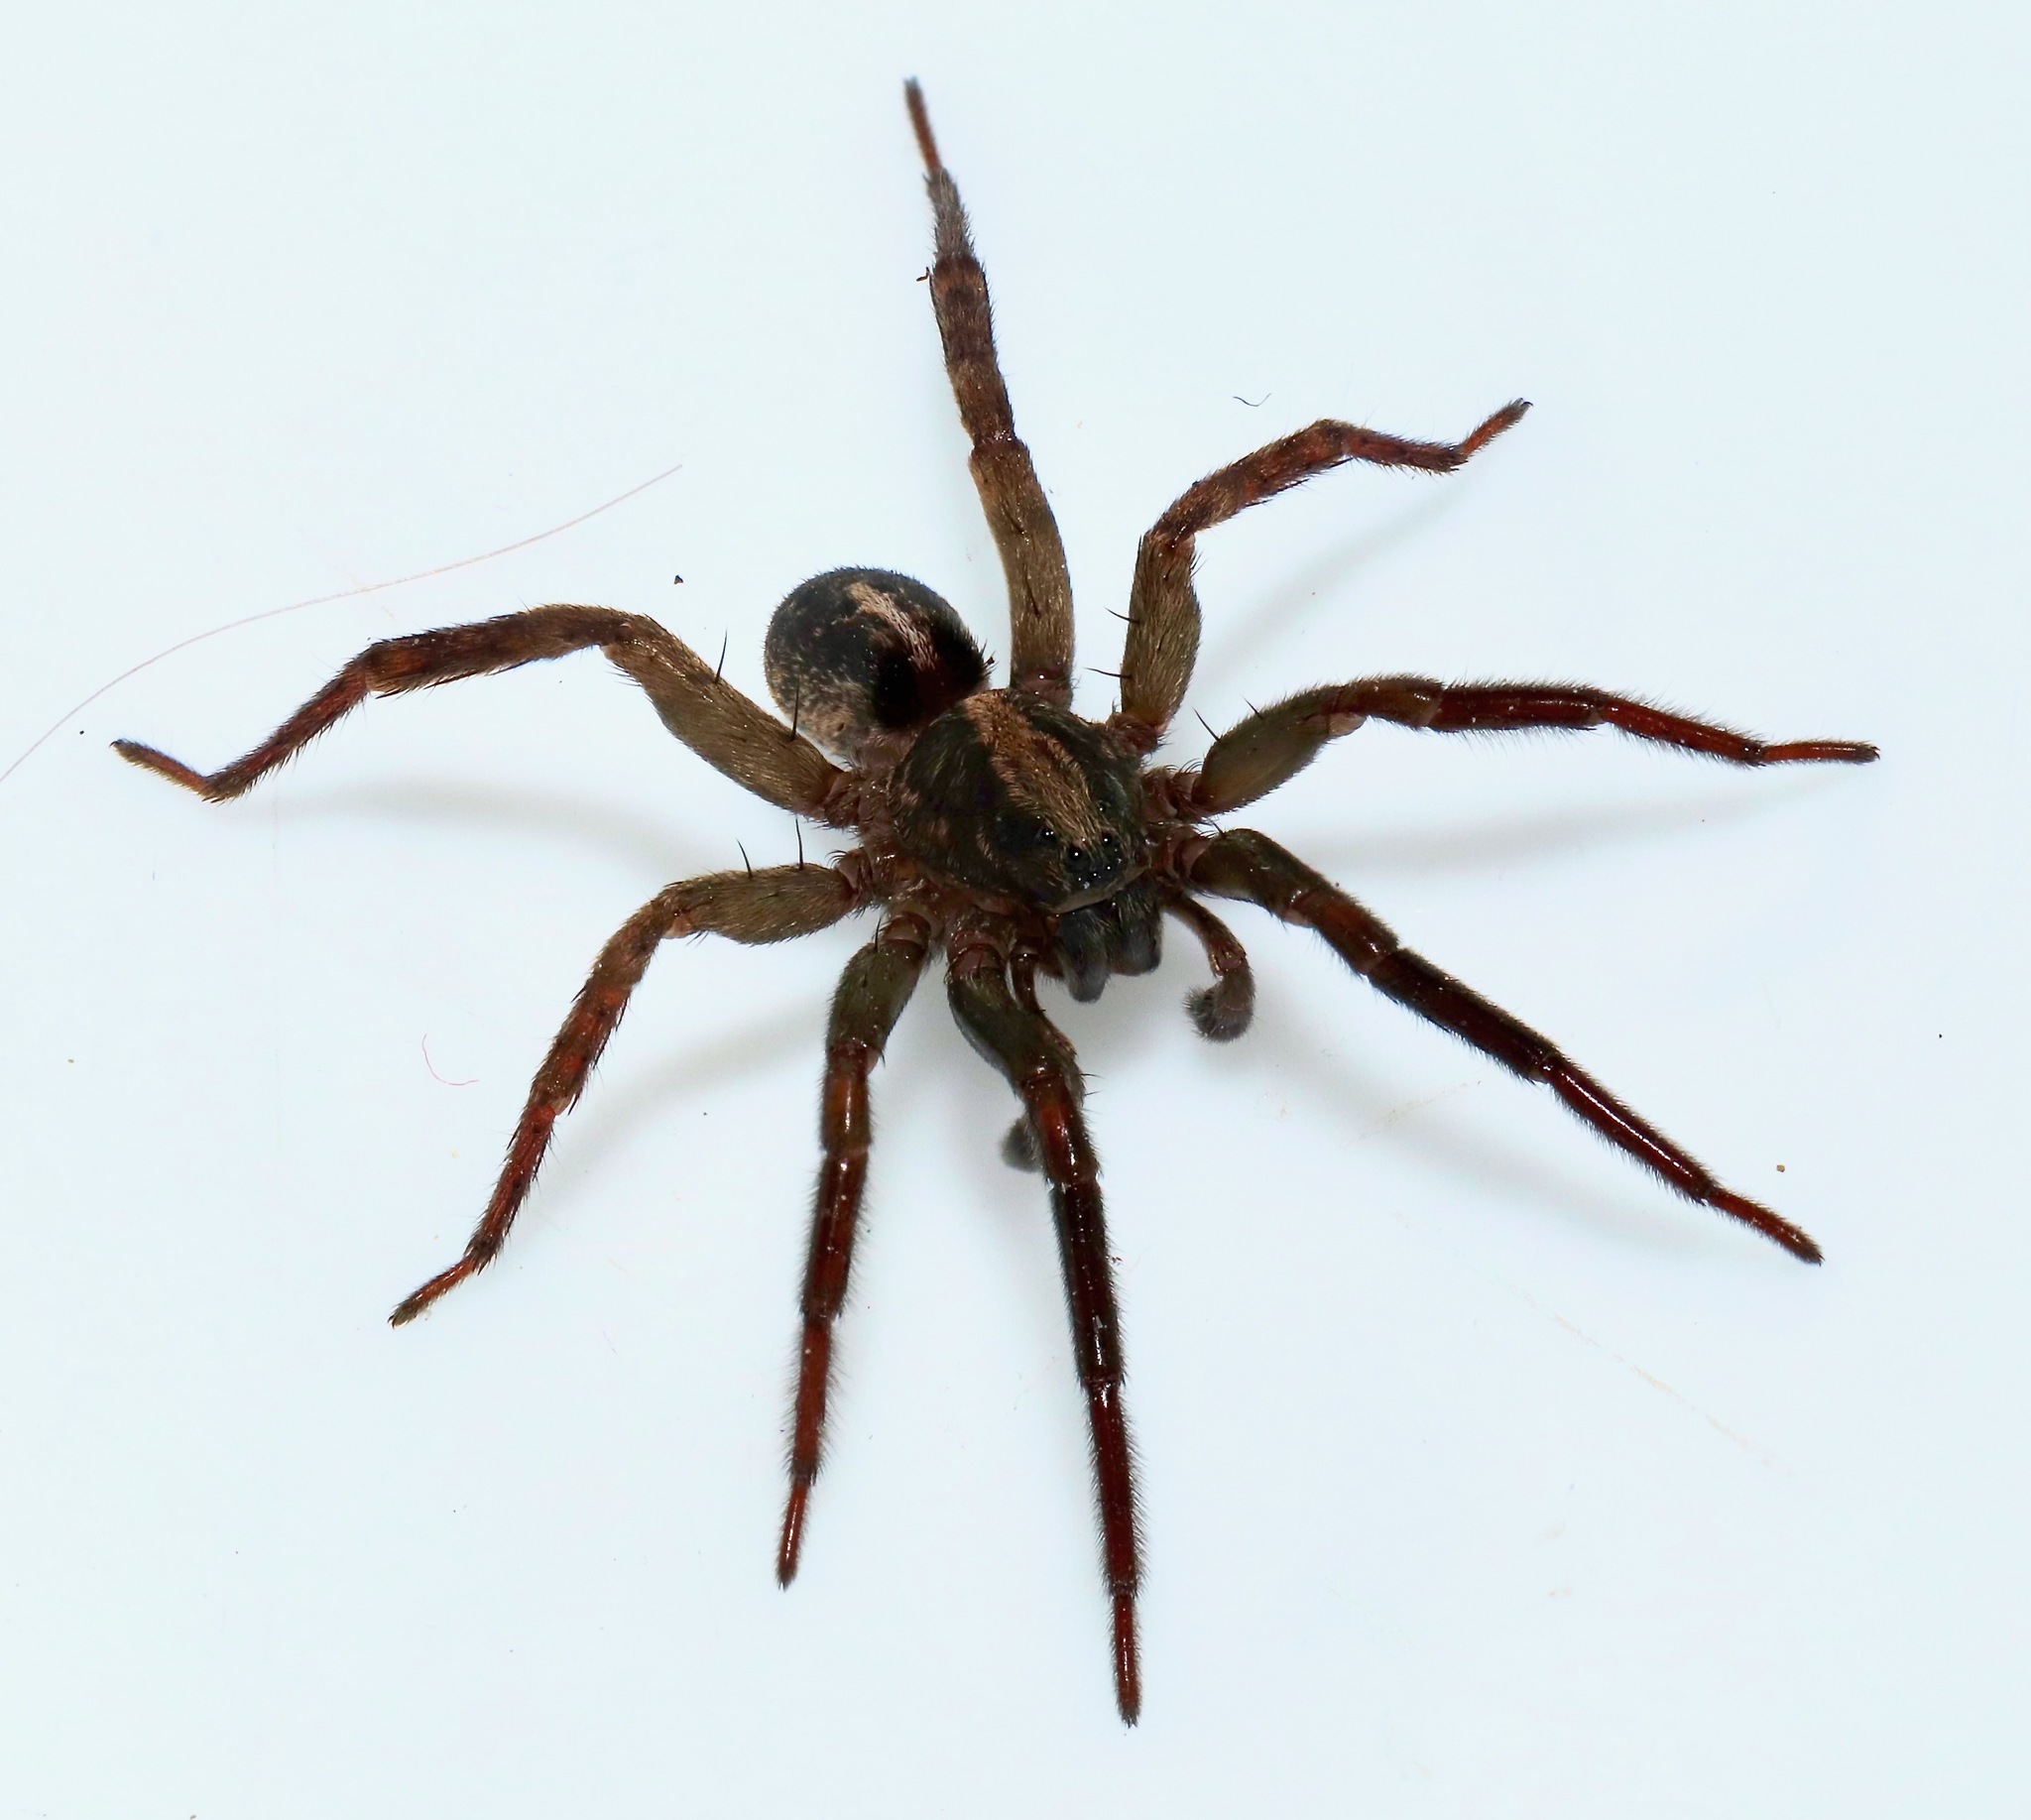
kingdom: Animalia
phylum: Arthropoda
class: Arachnida
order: Araneae
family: Lycosidae
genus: Trochosa
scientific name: Trochosa terricola
